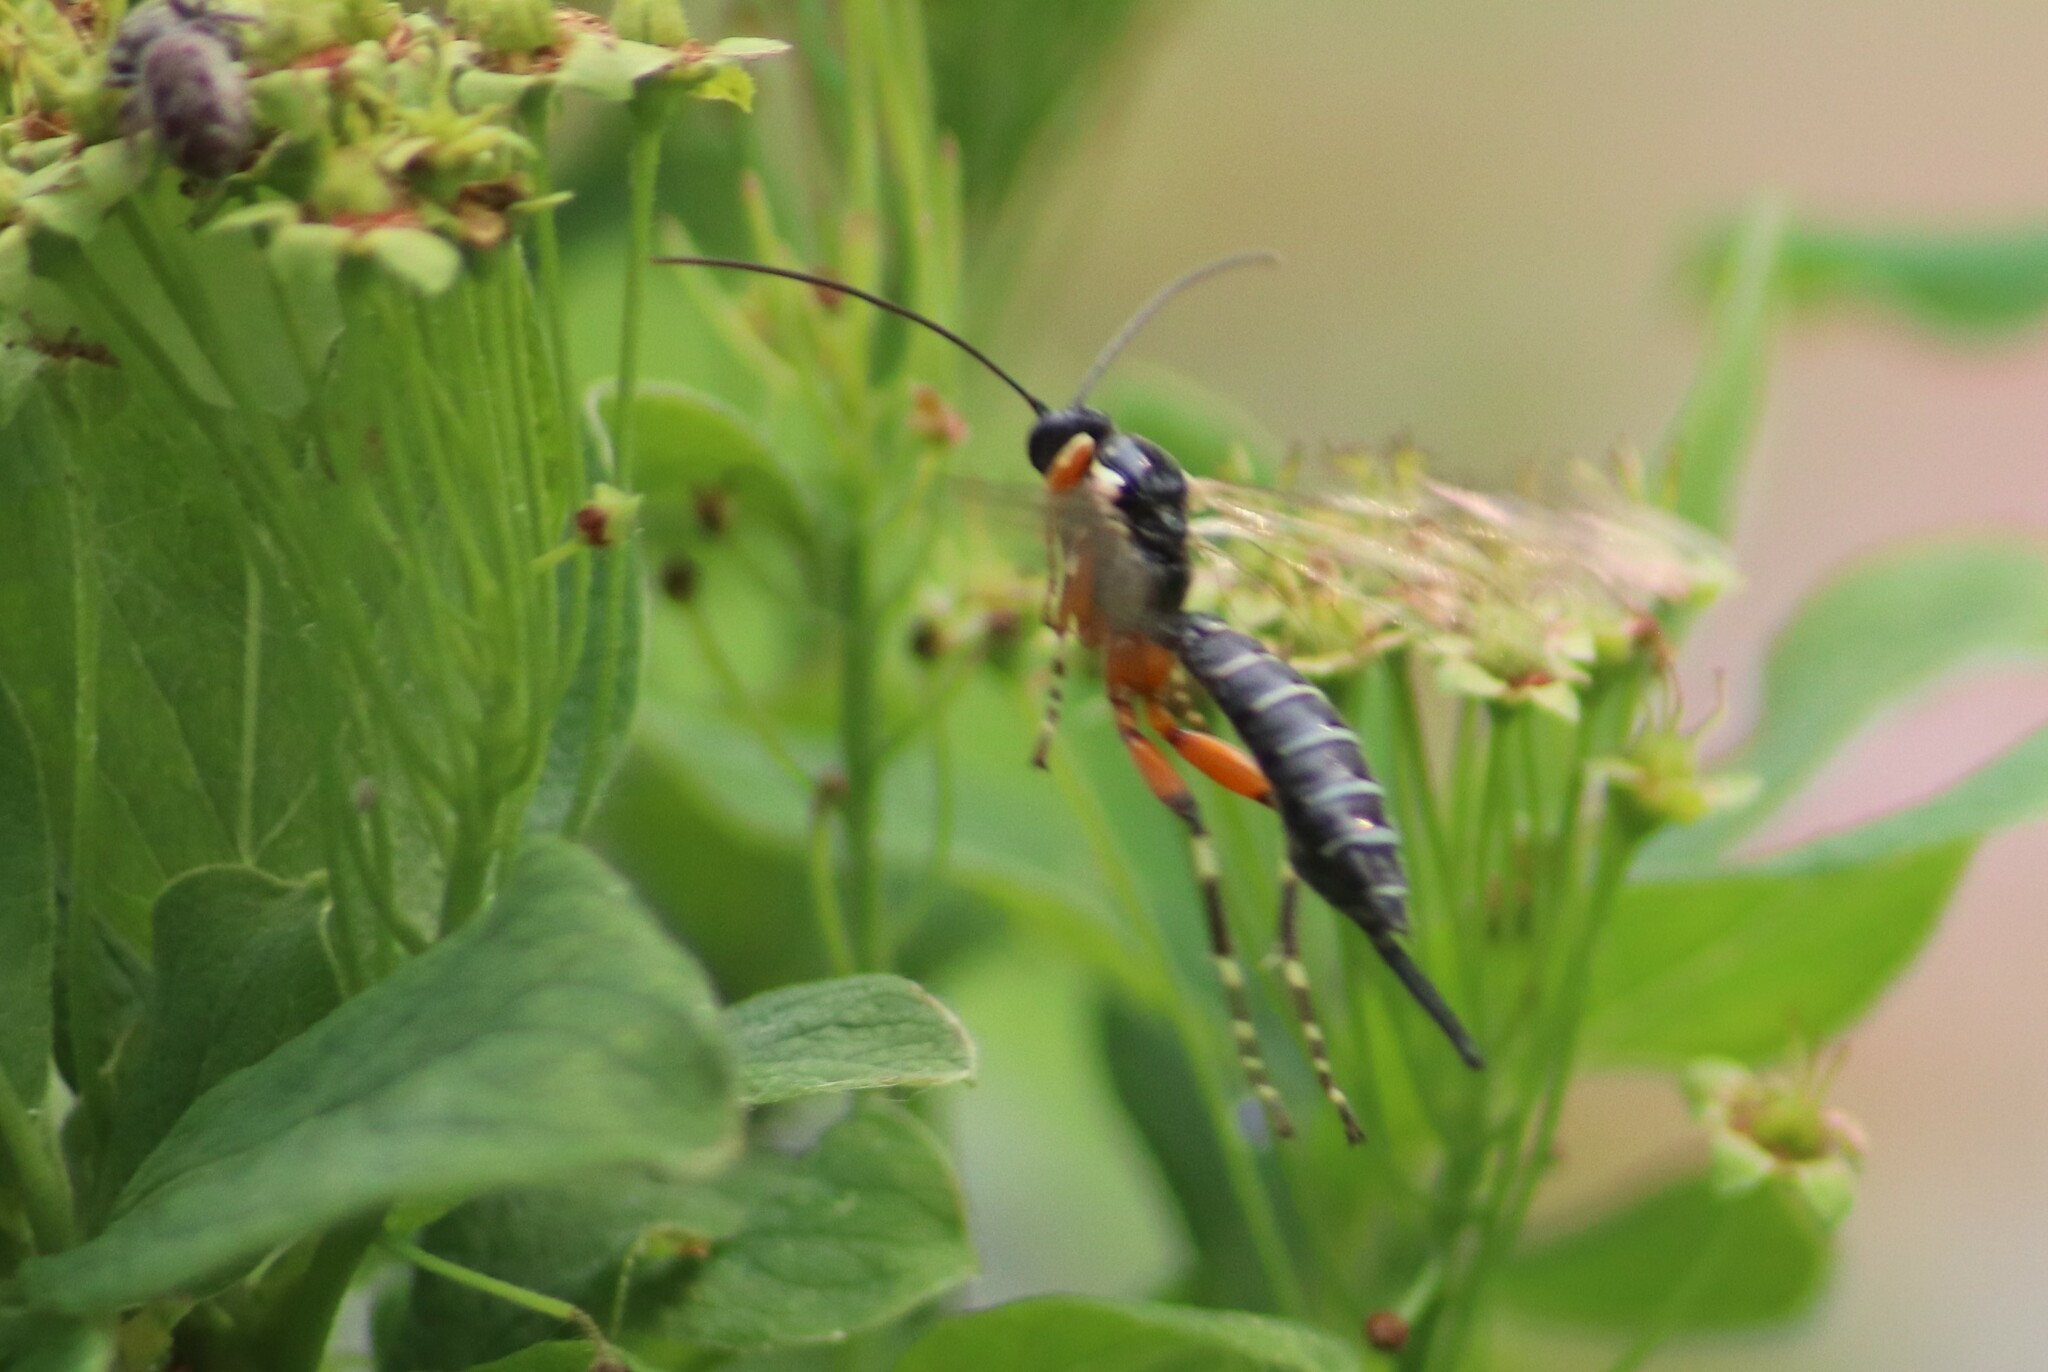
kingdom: Animalia
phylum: Arthropoda
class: Insecta
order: Hymenoptera
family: Ichneumonidae
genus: Itoplectis
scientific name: Itoplectis conquisitor
